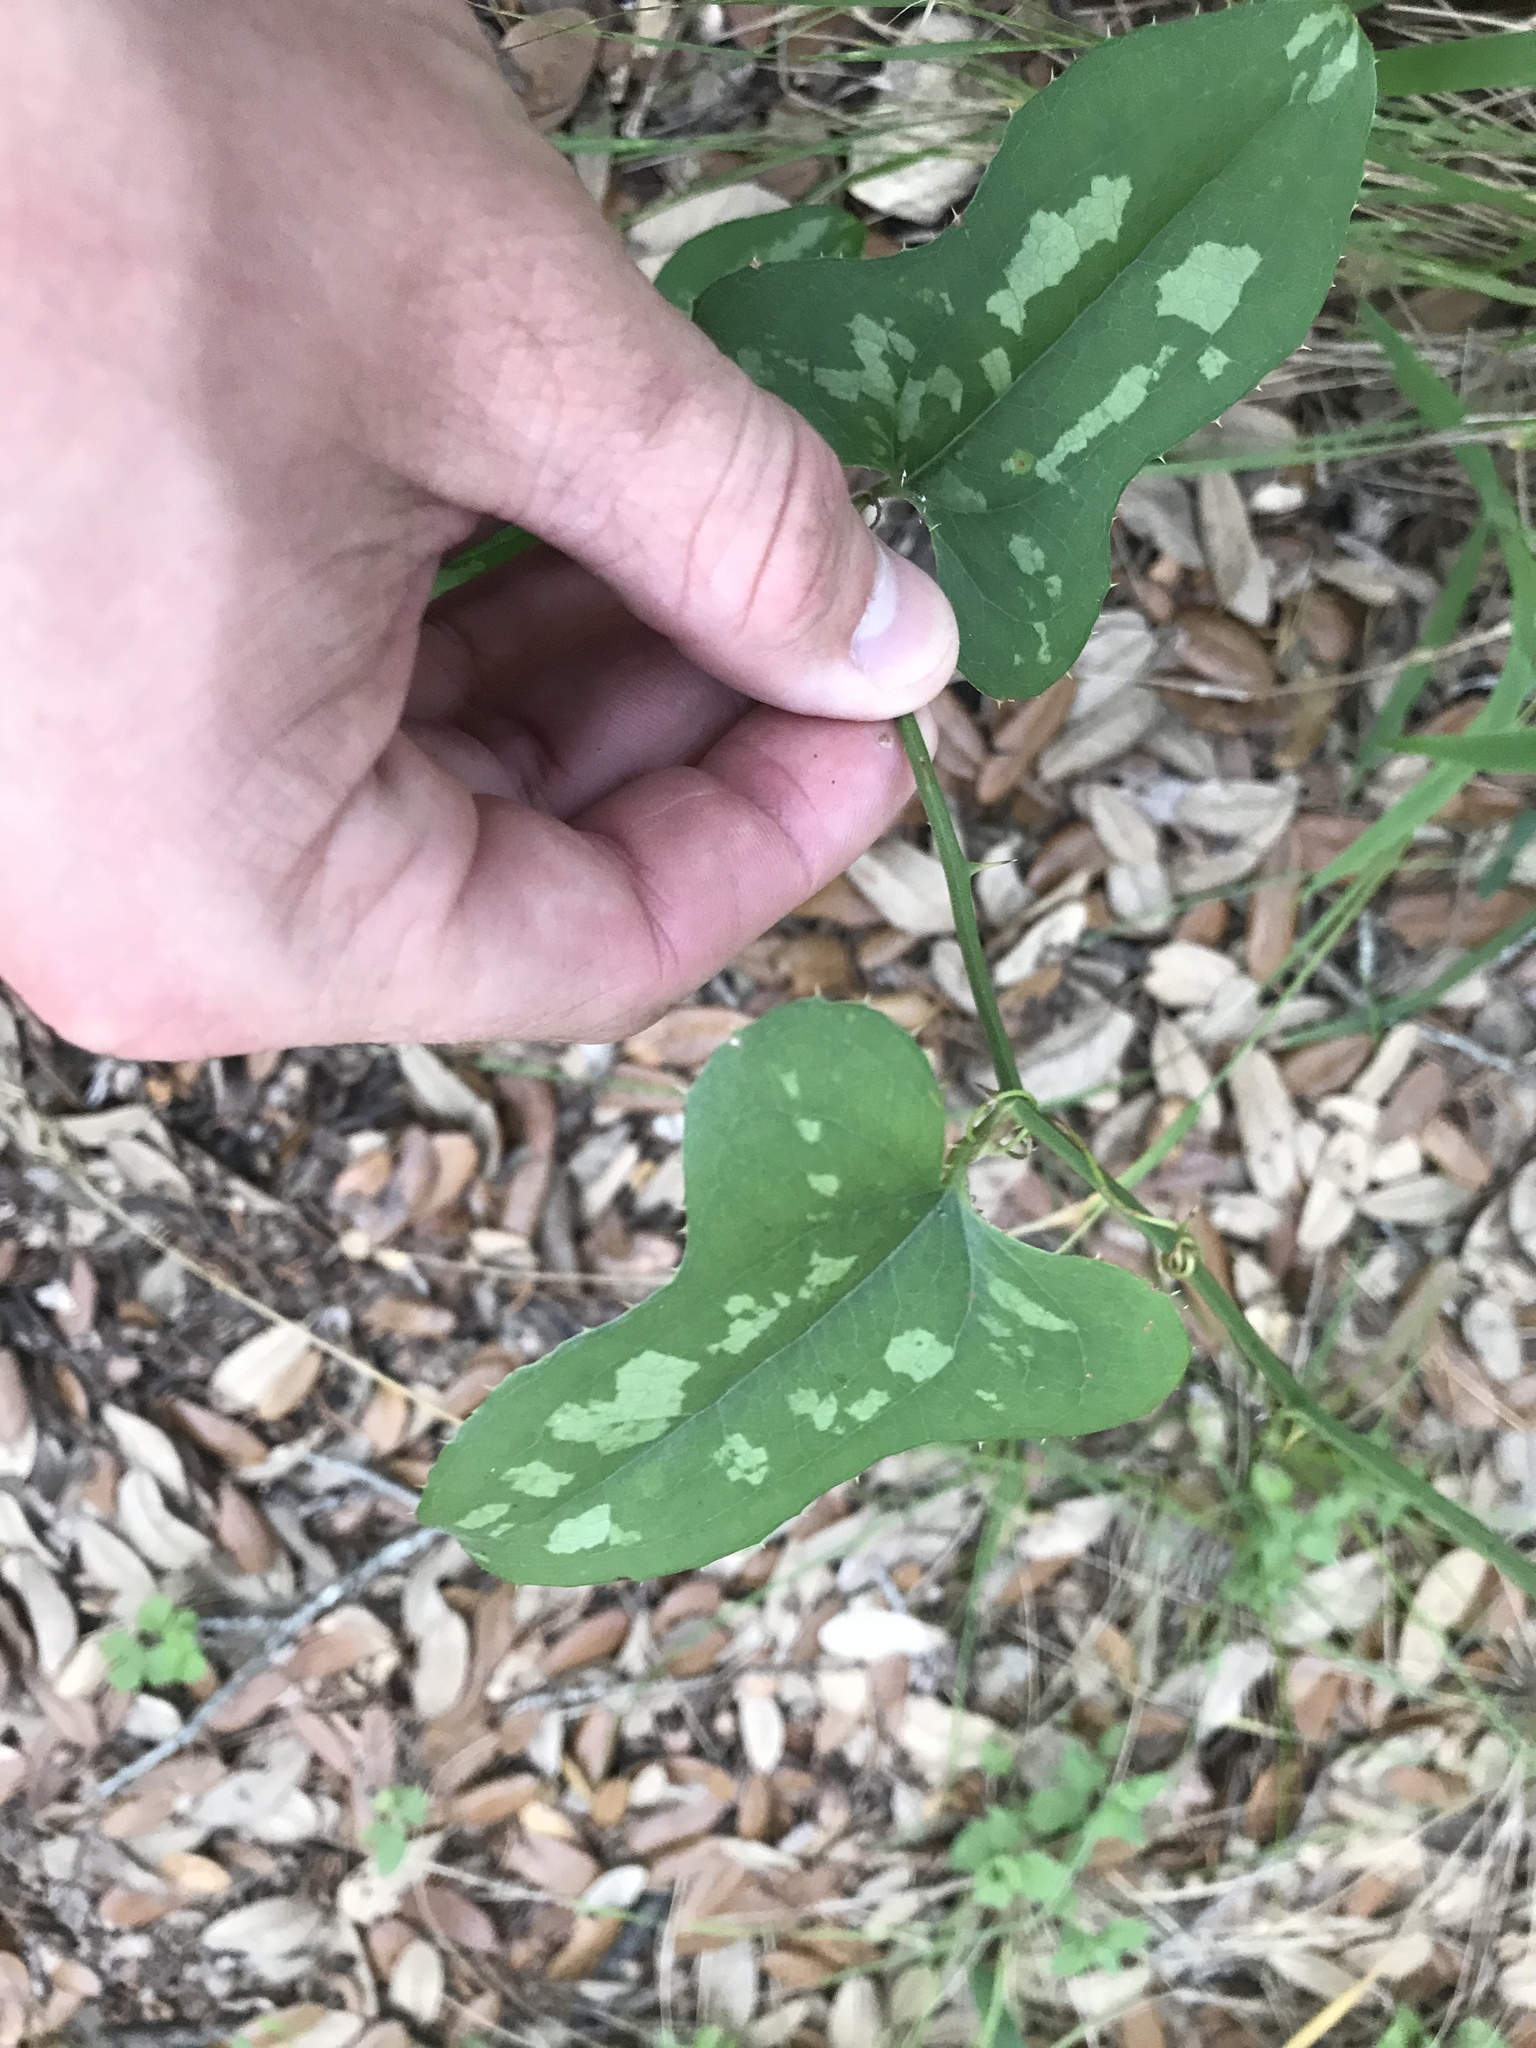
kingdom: Plantae
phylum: Tracheophyta
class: Liliopsida
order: Liliales
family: Smilacaceae
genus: Smilax
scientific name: Smilax bona-nox
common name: Catbrier
